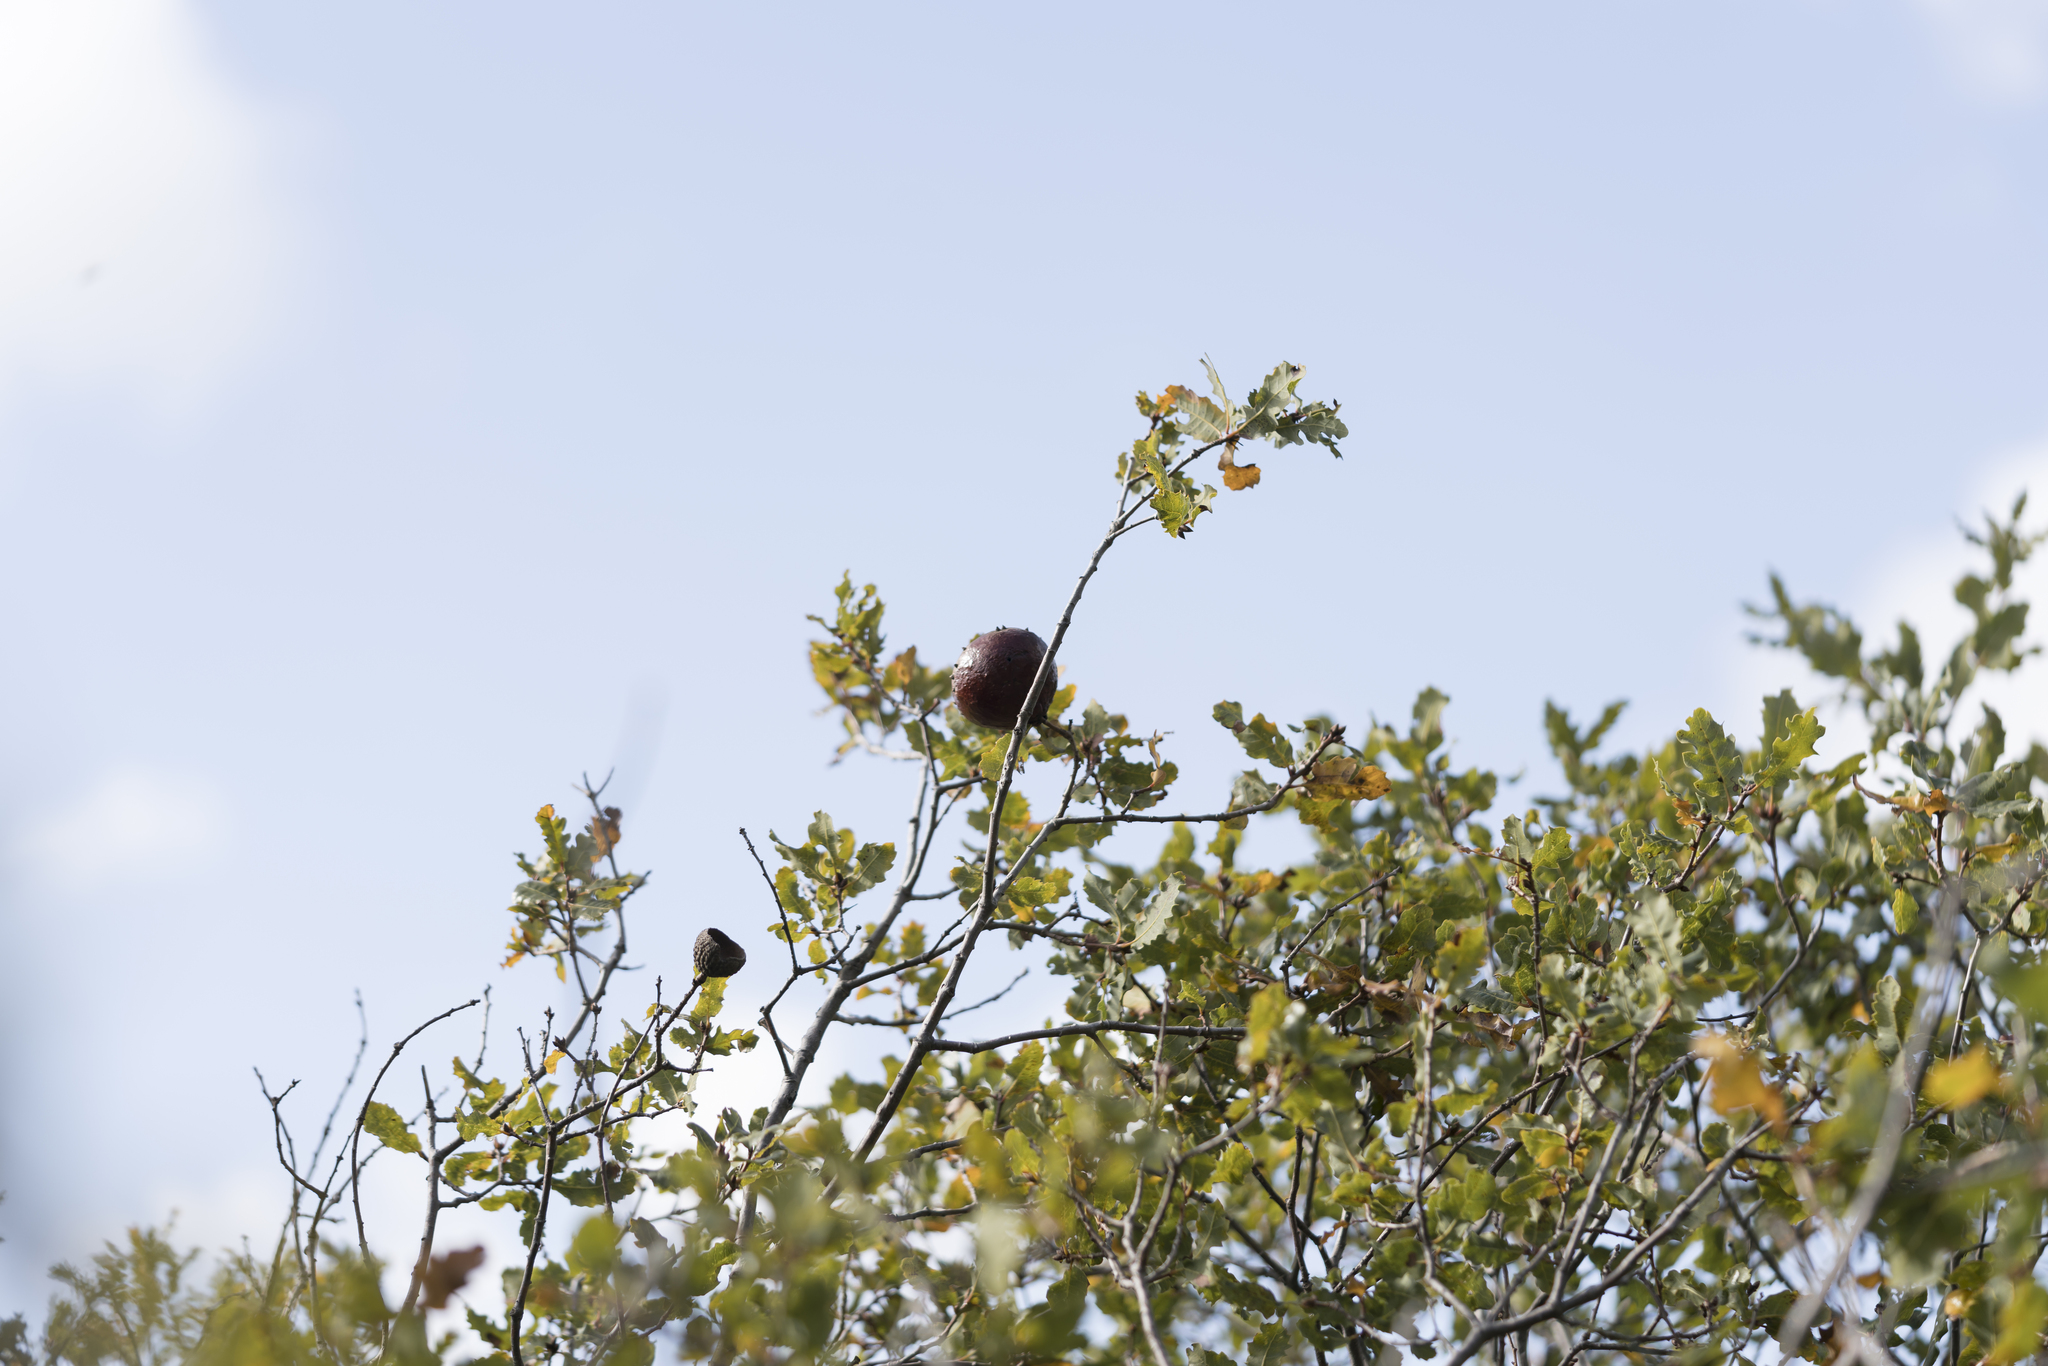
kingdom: Animalia
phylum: Arthropoda
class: Insecta
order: Hymenoptera
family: Cynipidae
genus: Andricus
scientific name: Andricus insanus
